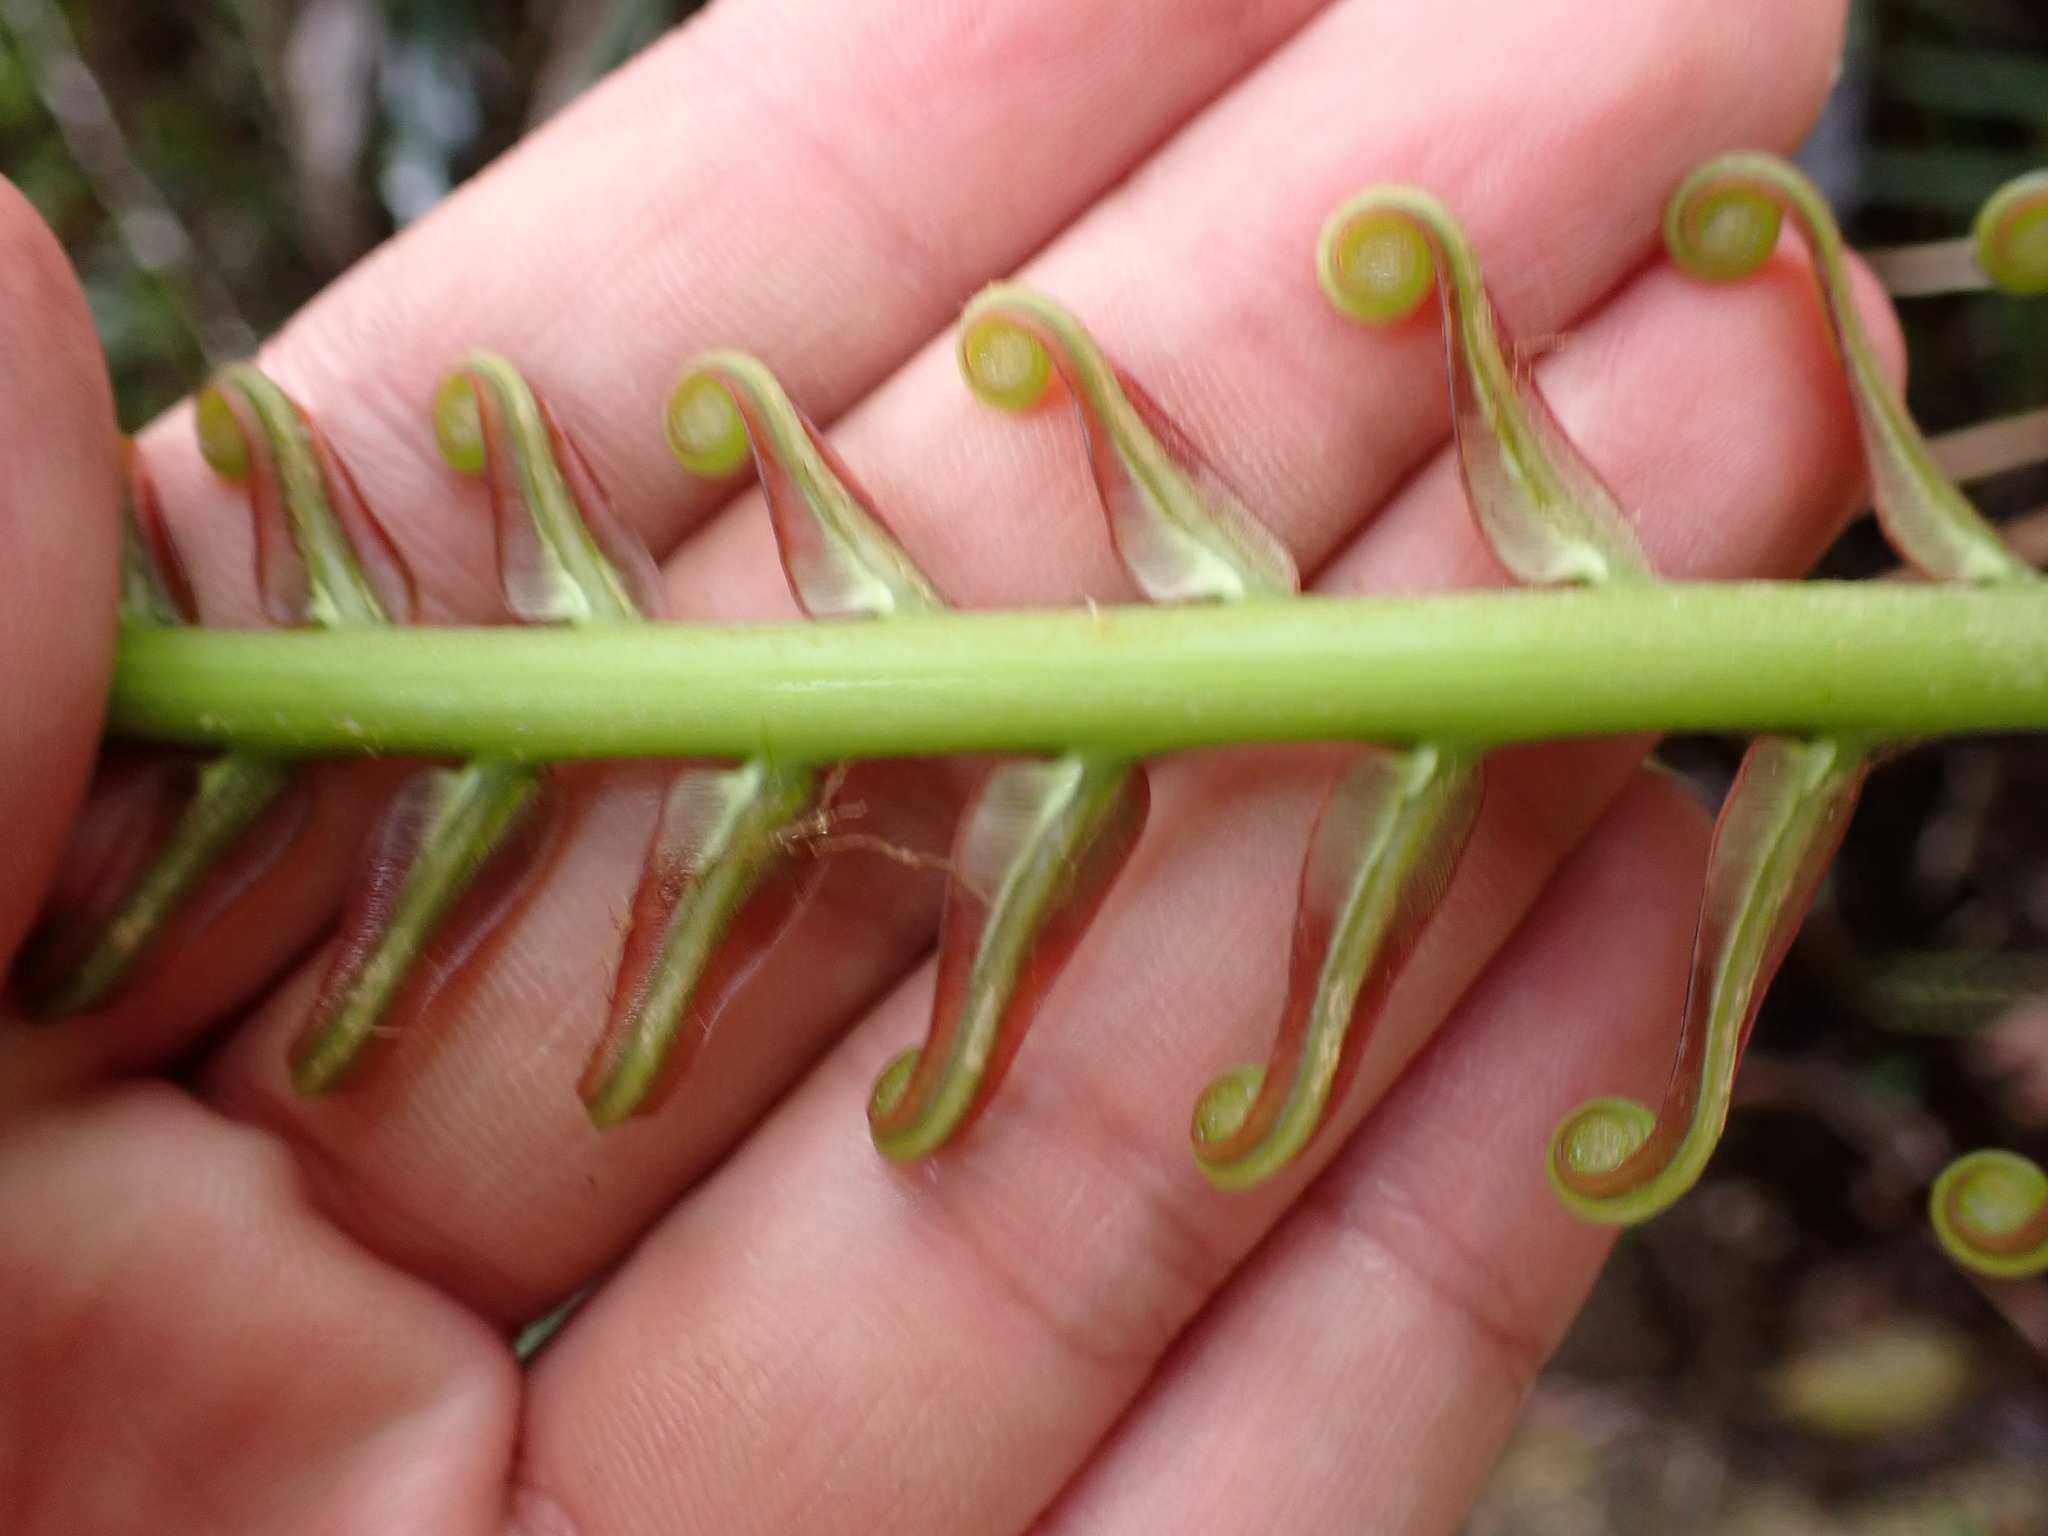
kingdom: Plantae
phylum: Tracheophyta
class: Polypodiopsida
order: Polypodiales
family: Blechnaceae
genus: Blechnopsis
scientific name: Blechnopsis orientalis
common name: Oriental blechnum
